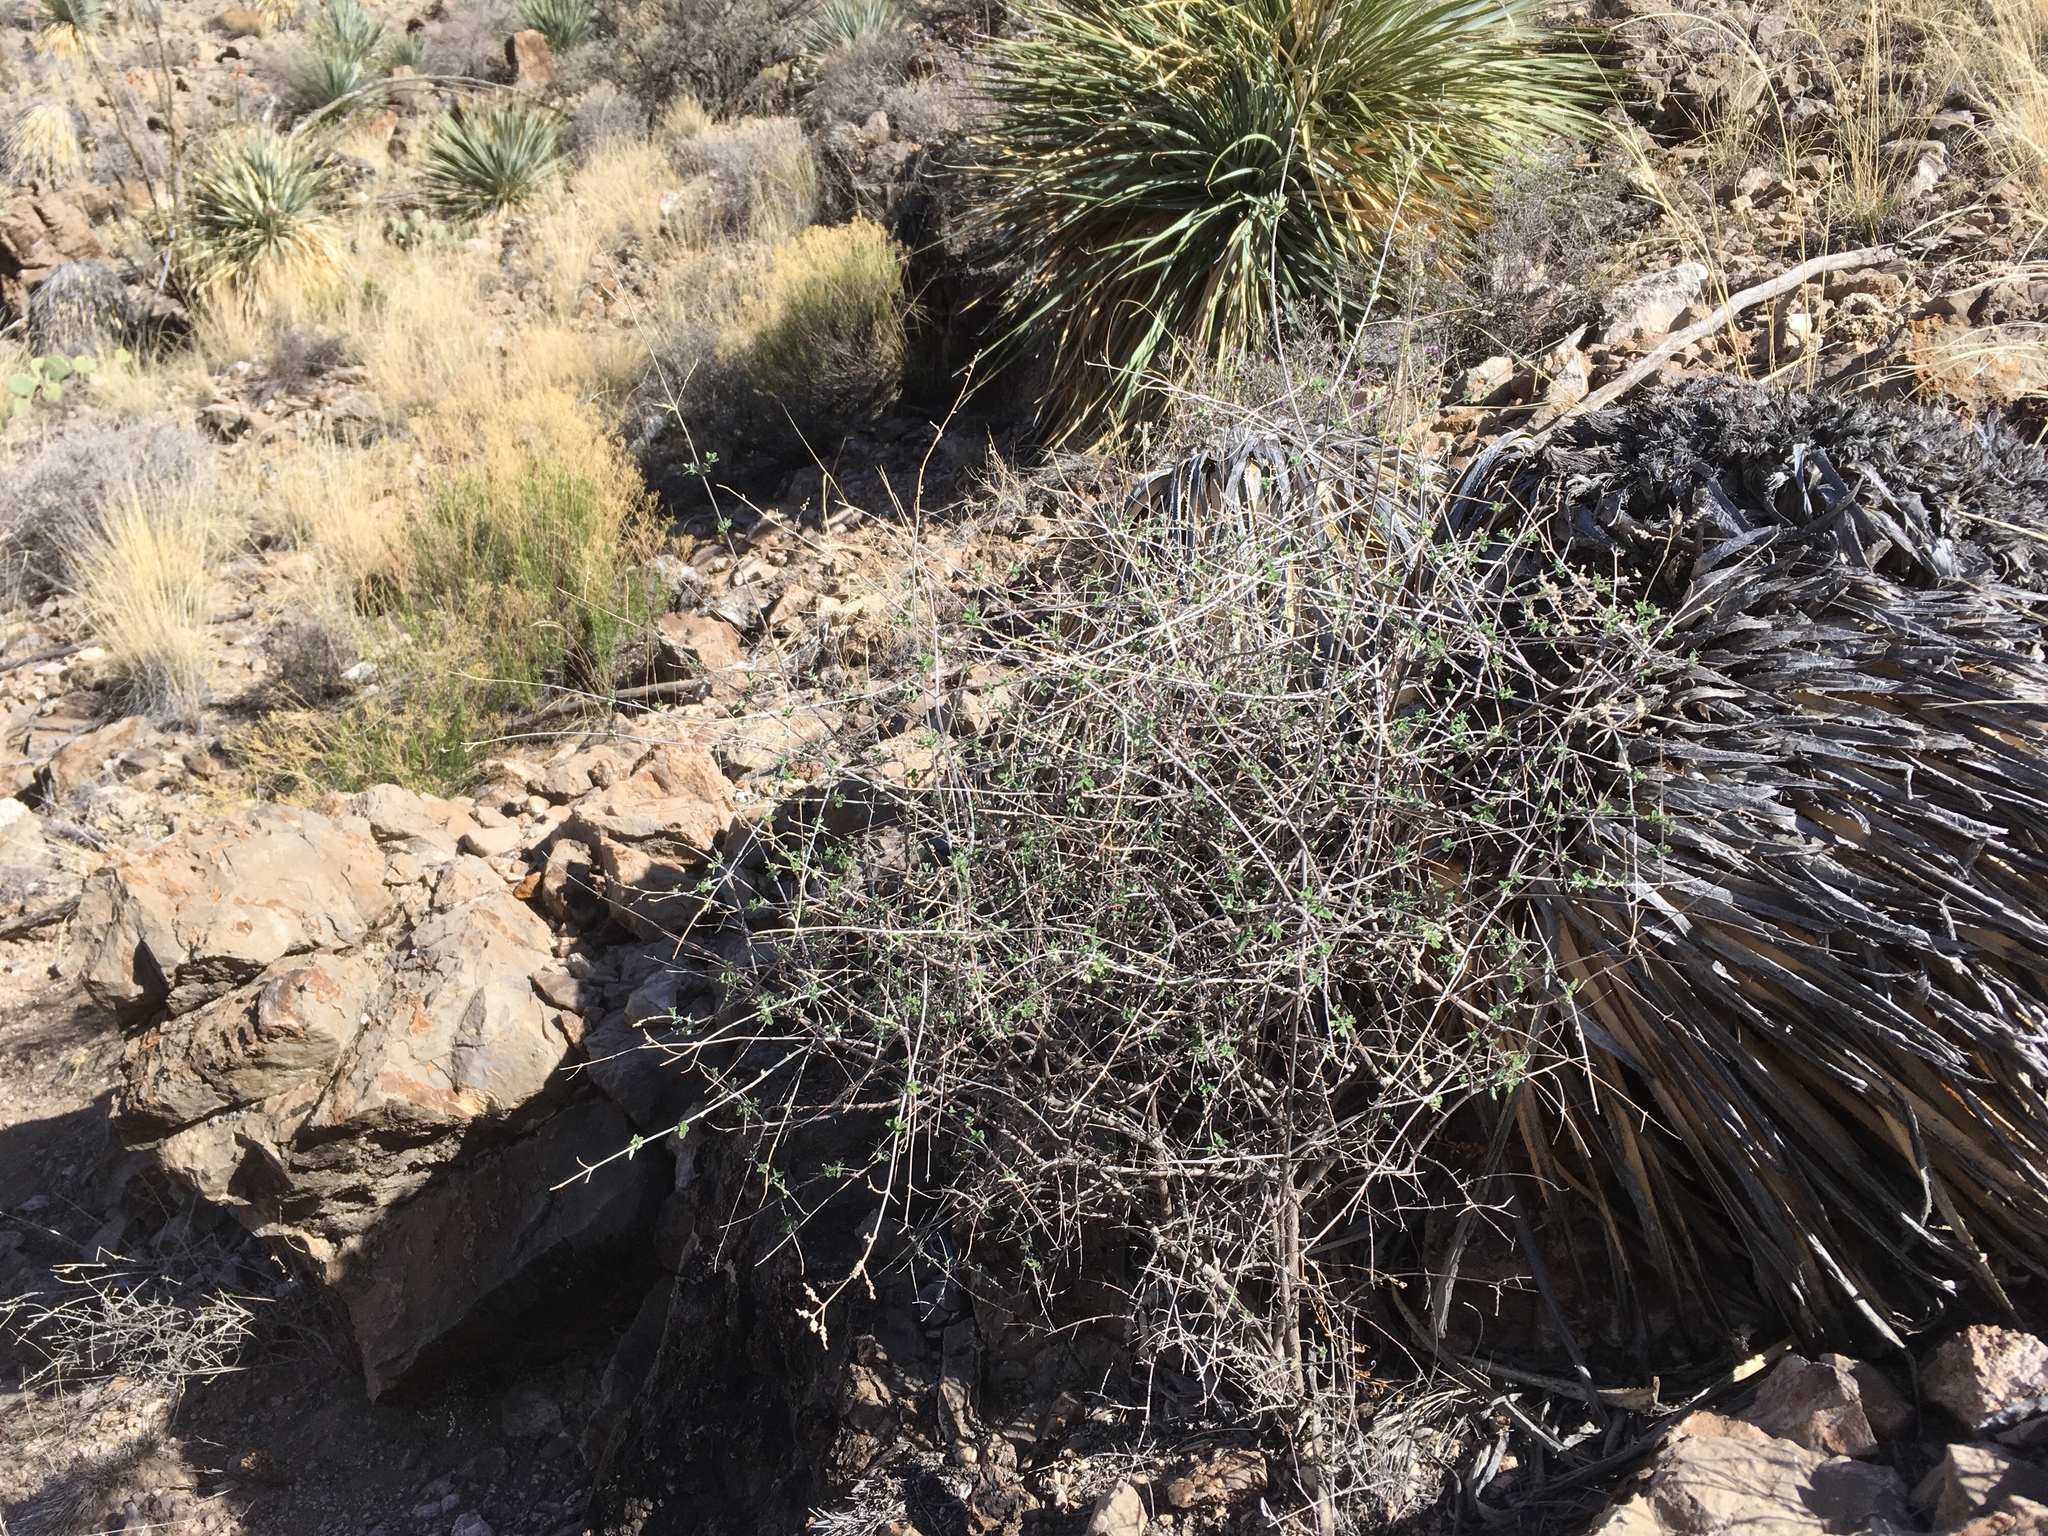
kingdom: Plantae
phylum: Tracheophyta
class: Magnoliopsida
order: Lamiales
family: Verbenaceae
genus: Aloysia
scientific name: Aloysia wrightii
